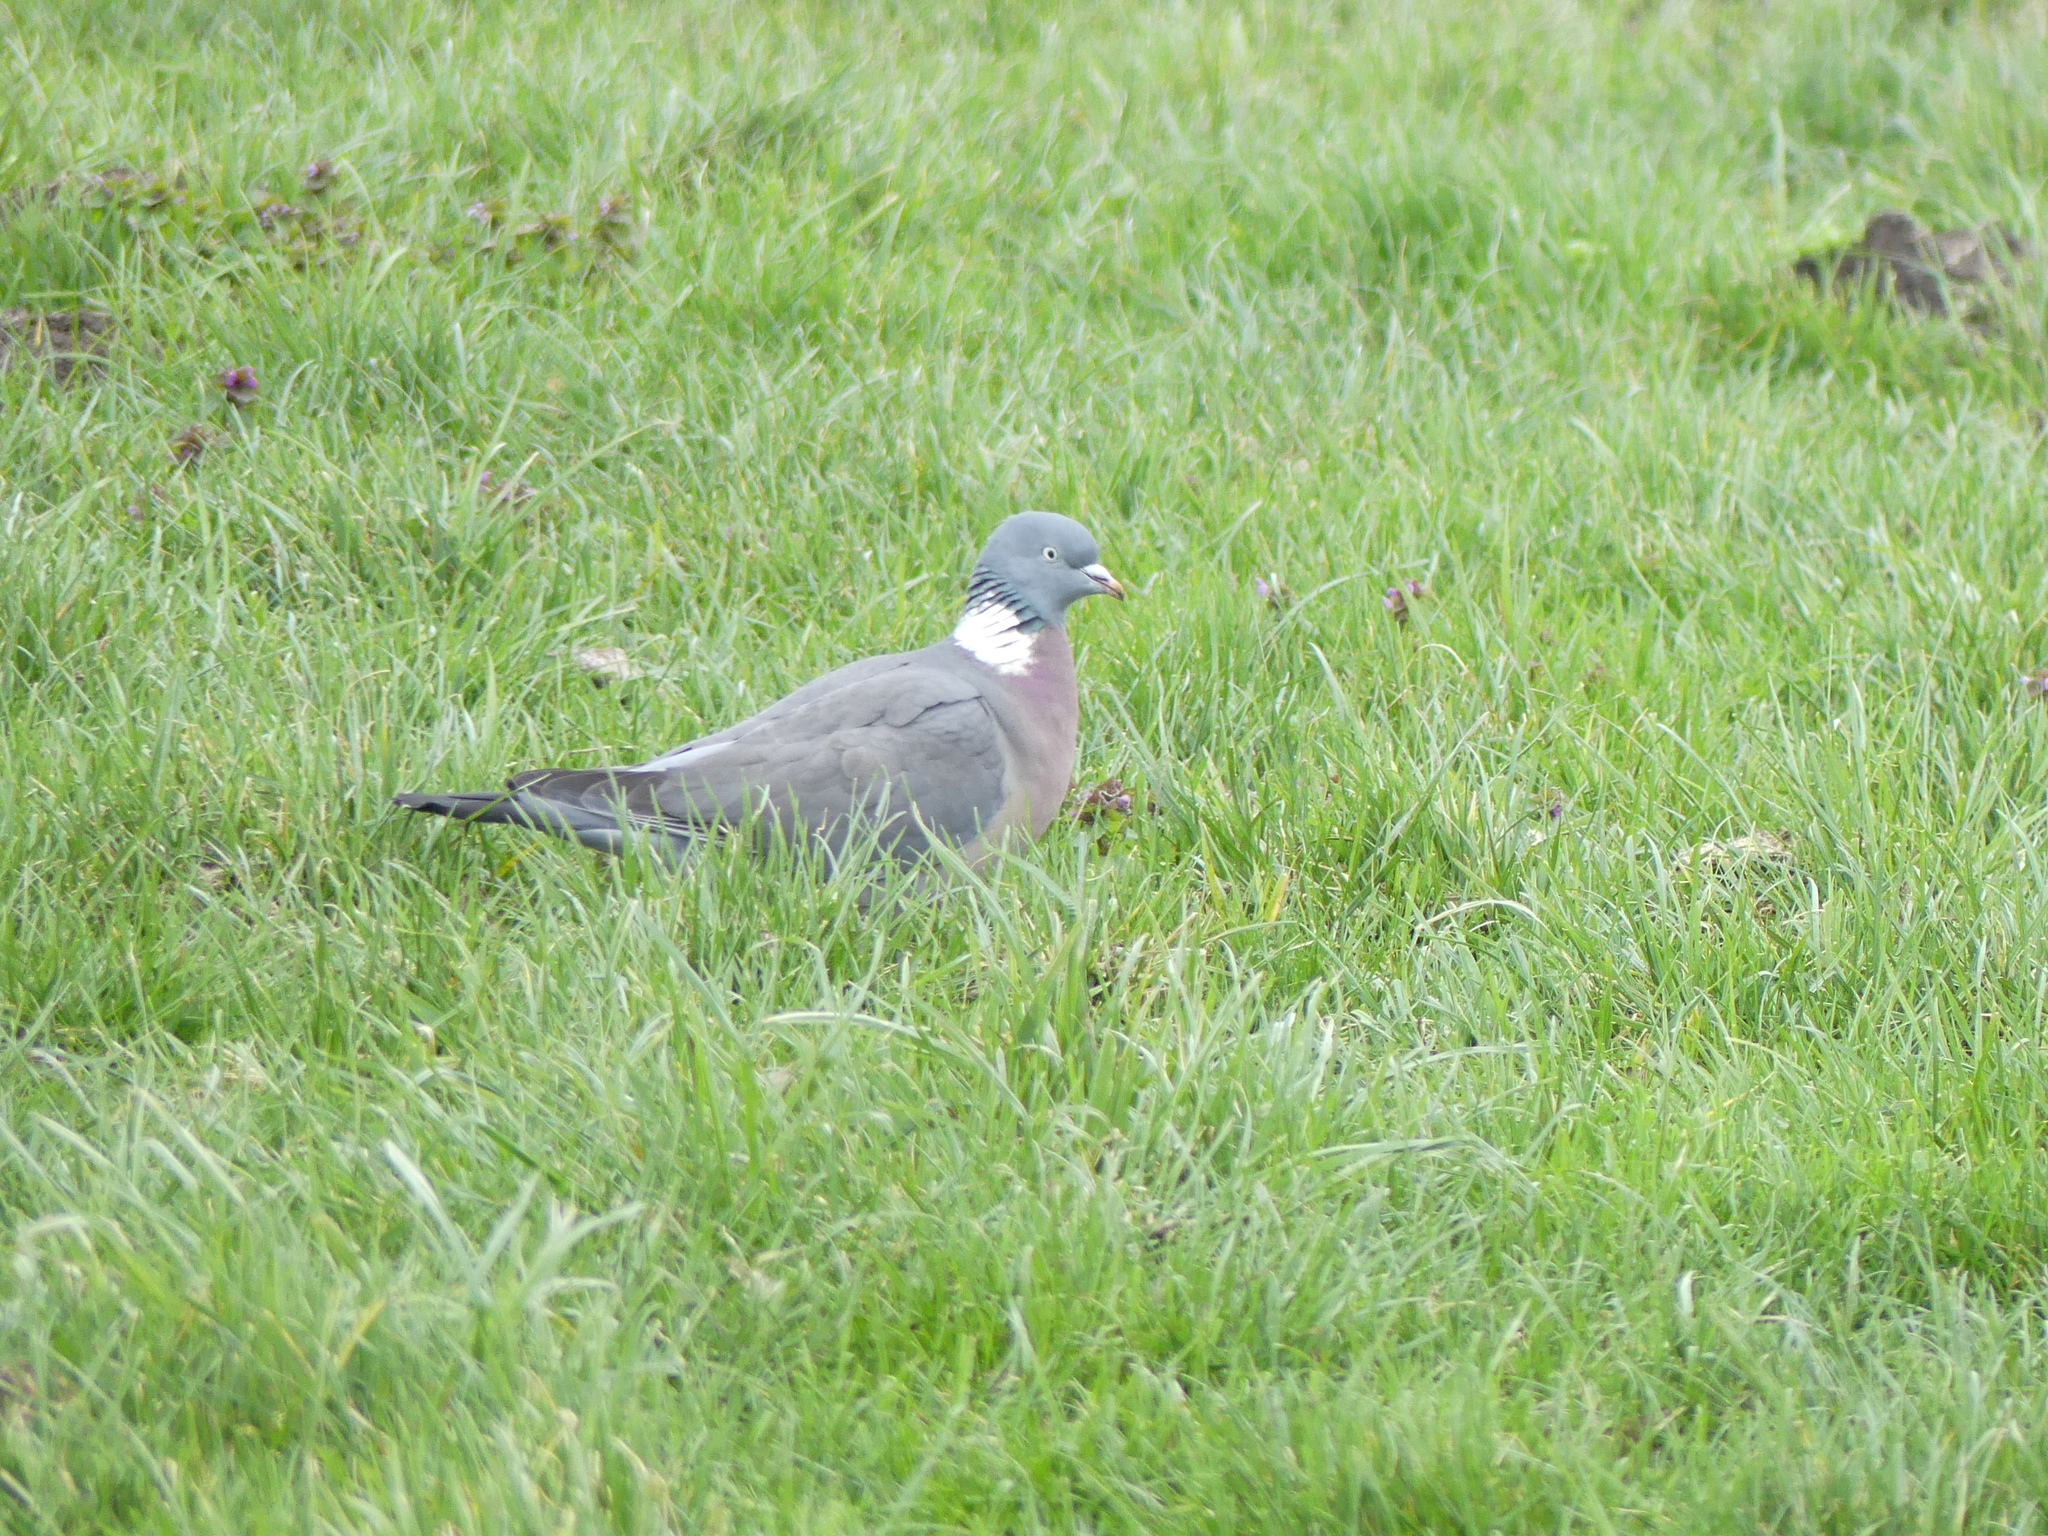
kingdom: Animalia
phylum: Chordata
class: Aves
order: Columbiformes
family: Columbidae
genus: Columba
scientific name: Columba palumbus
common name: Common wood pigeon
